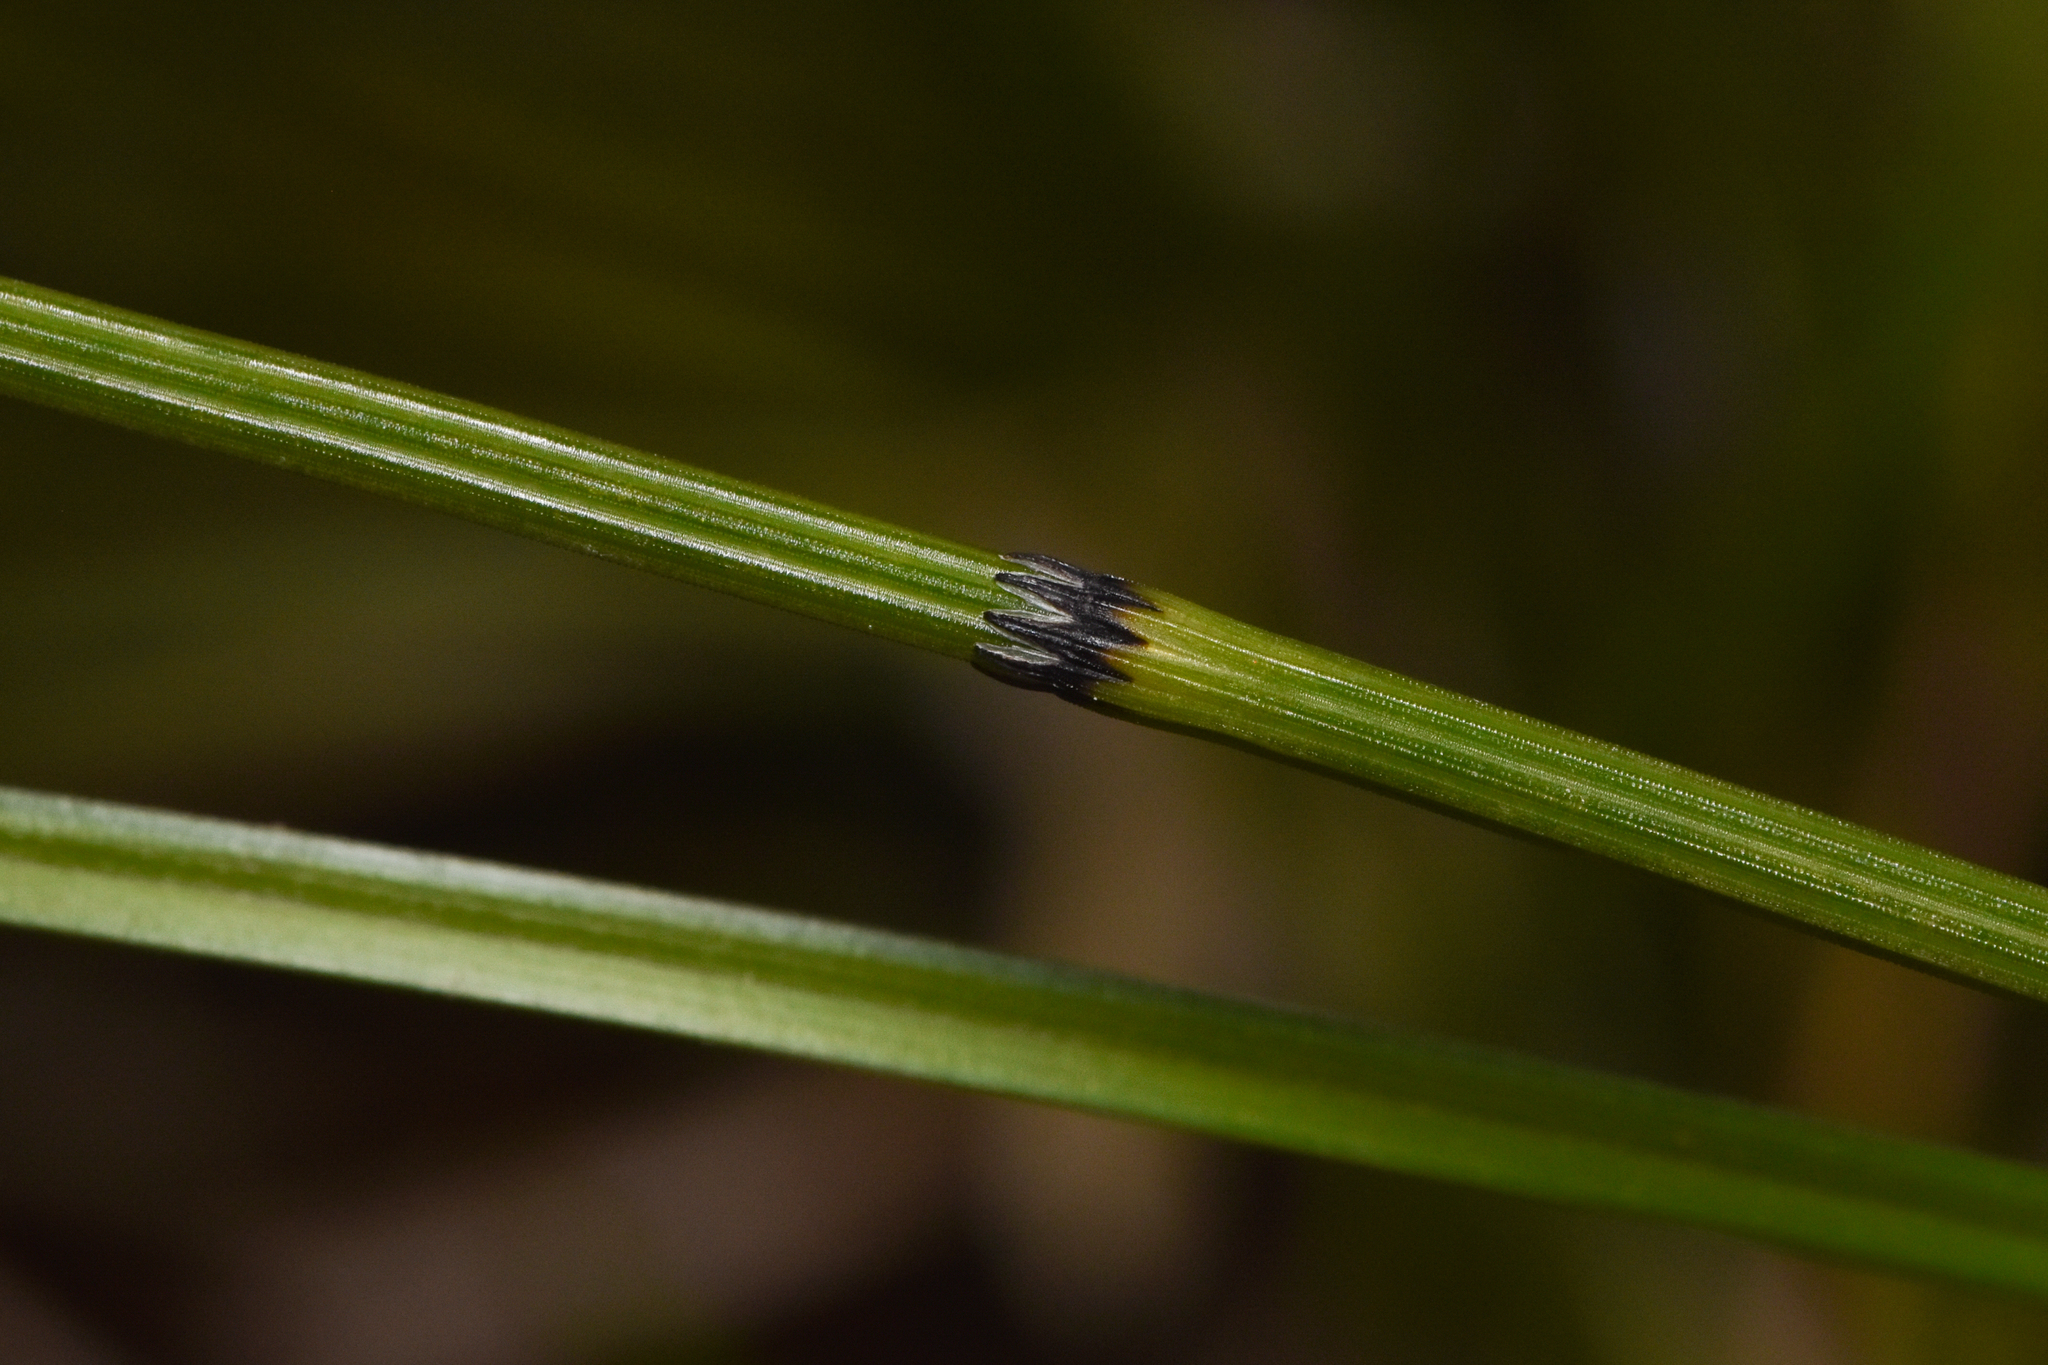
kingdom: Plantae
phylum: Tracheophyta
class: Polypodiopsida
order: Equisetales
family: Equisetaceae
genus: Equisetum
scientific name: Equisetum variegatum
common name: Variegated horsetail
